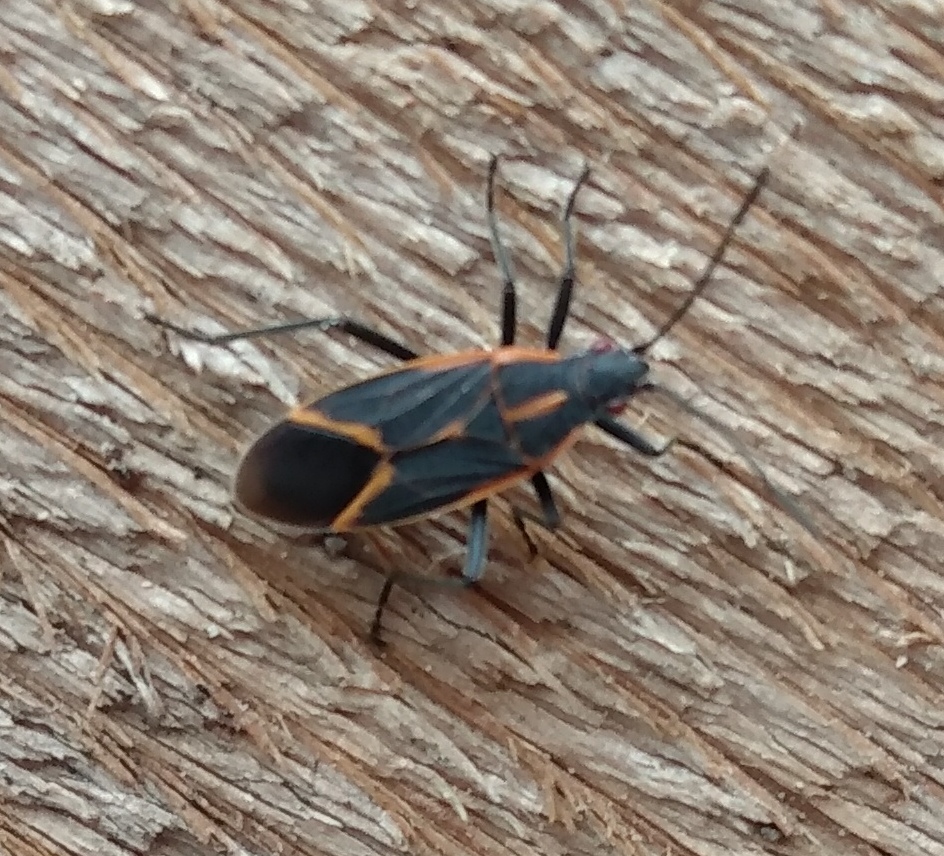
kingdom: Animalia
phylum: Arthropoda
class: Insecta
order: Hemiptera
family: Rhopalidae
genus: Boisea
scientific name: Boisea trivittata
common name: Boxelder bug
